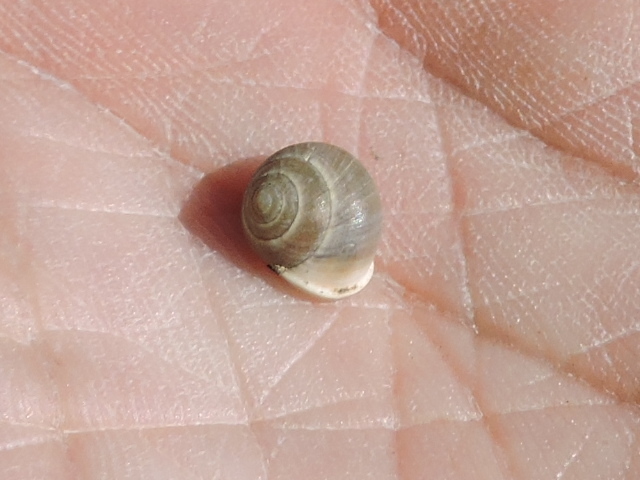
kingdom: Animalia
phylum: Mollusca
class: Gastropoda
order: Cycloneritida
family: Helicinidae
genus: Helicina
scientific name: Helicina orbiculata
